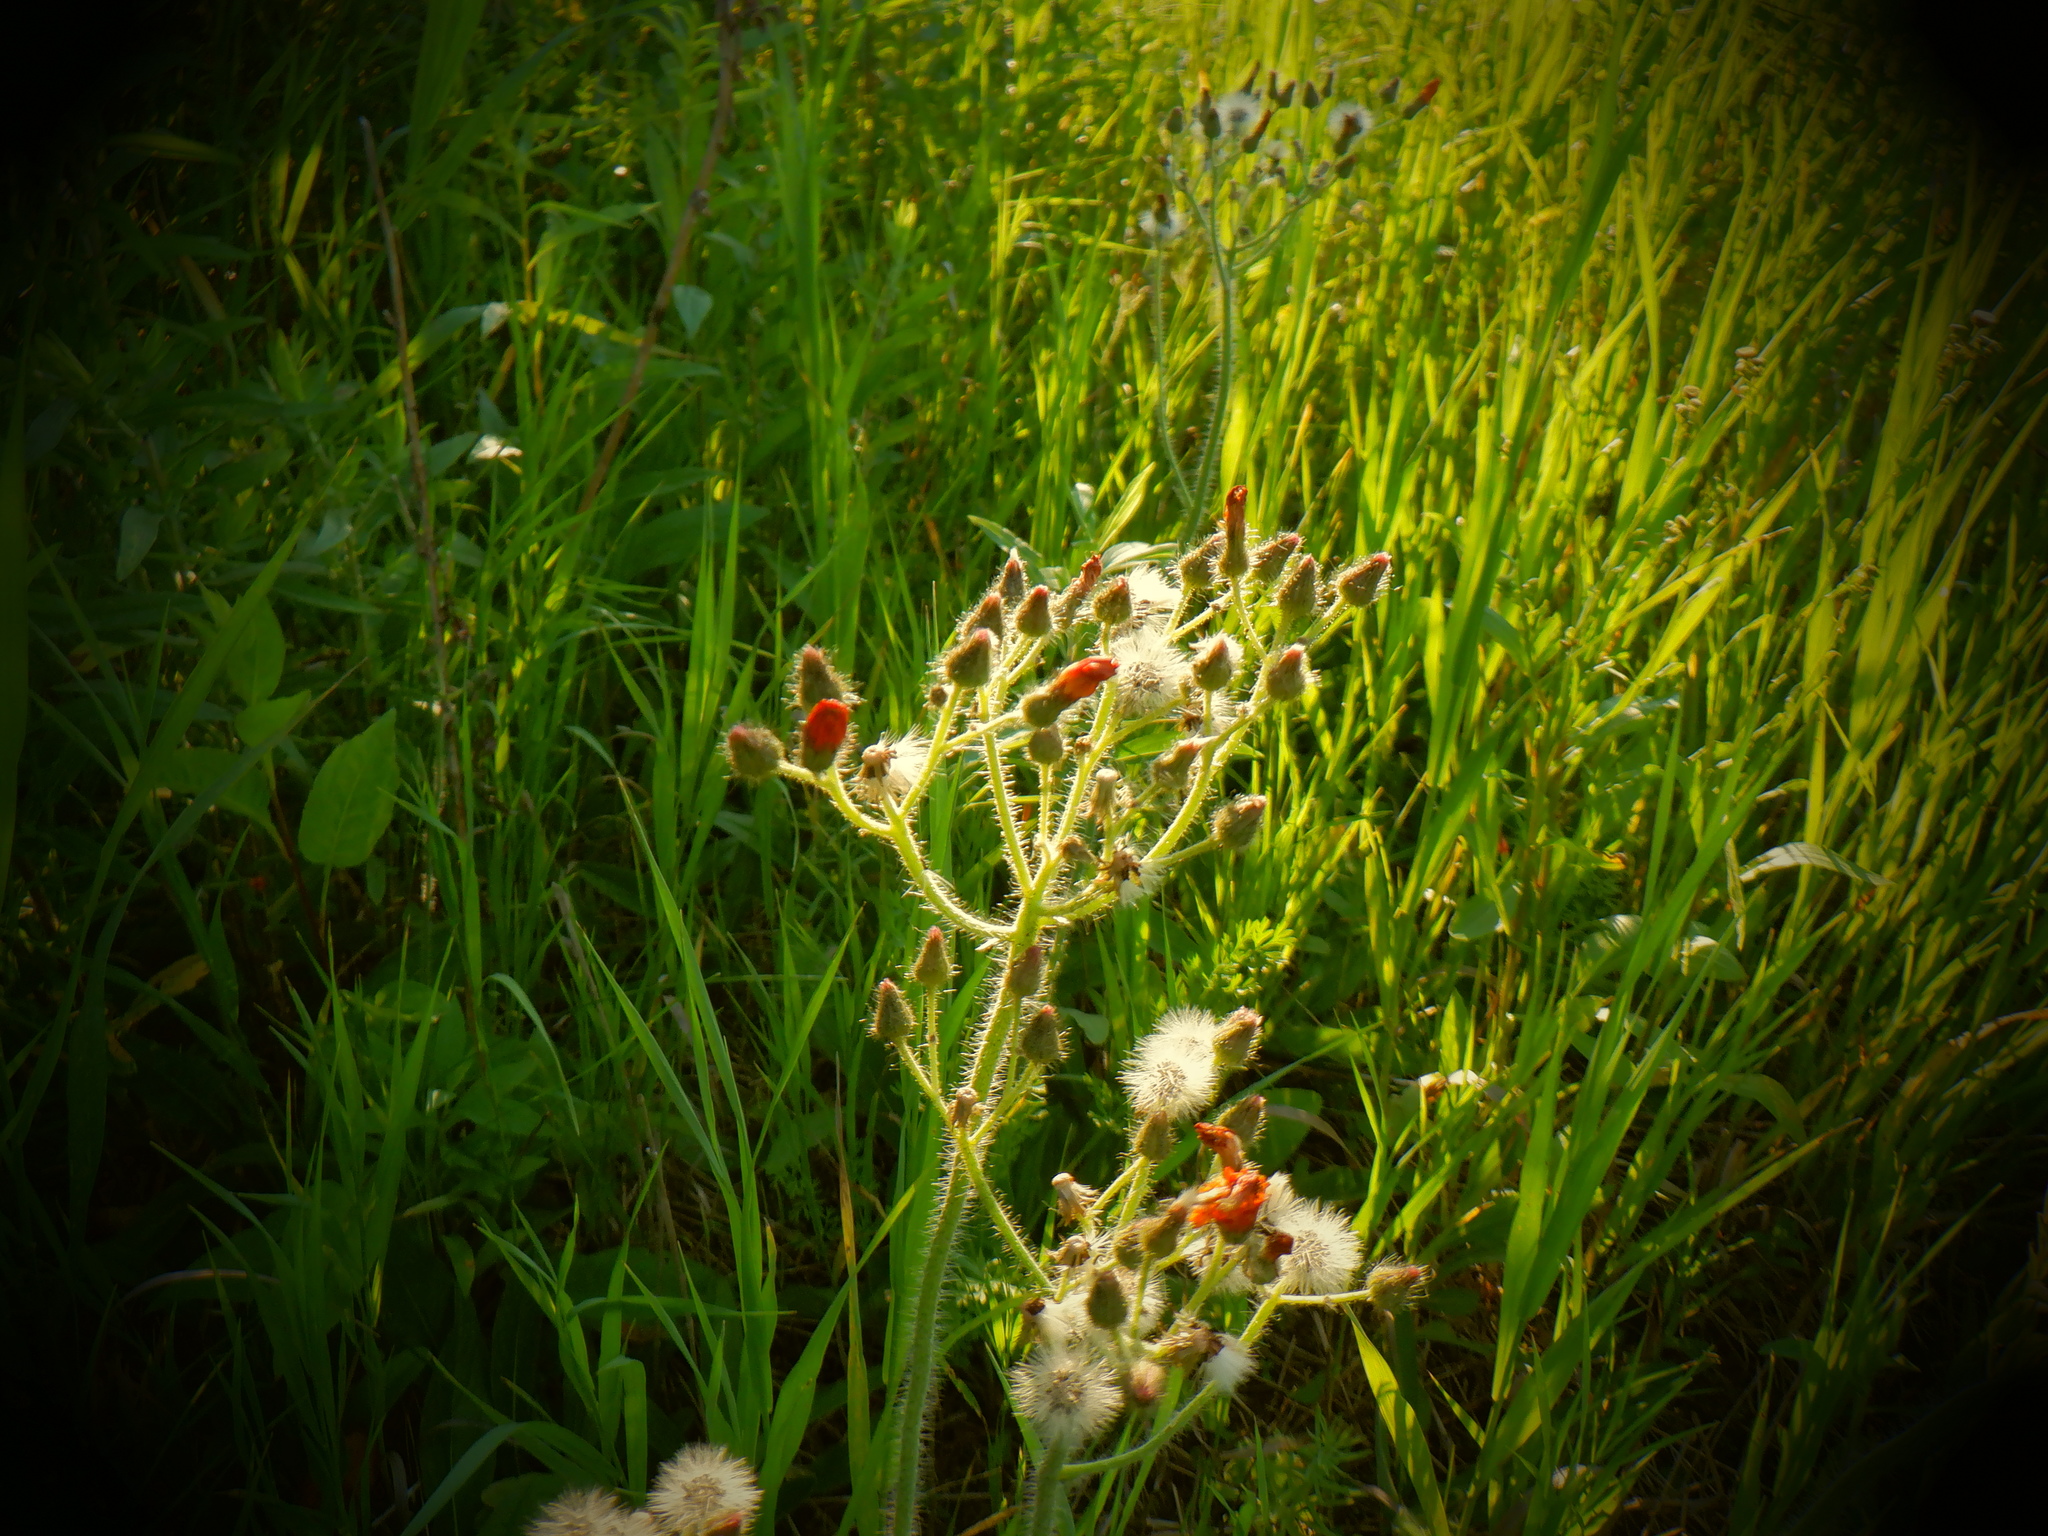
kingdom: Plantae
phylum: Tracheophyta
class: Magnoliopsida
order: Asterales
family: Asteraceae
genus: Pilosella
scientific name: Pilosella aurantiaca
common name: Fox-and-cubs
